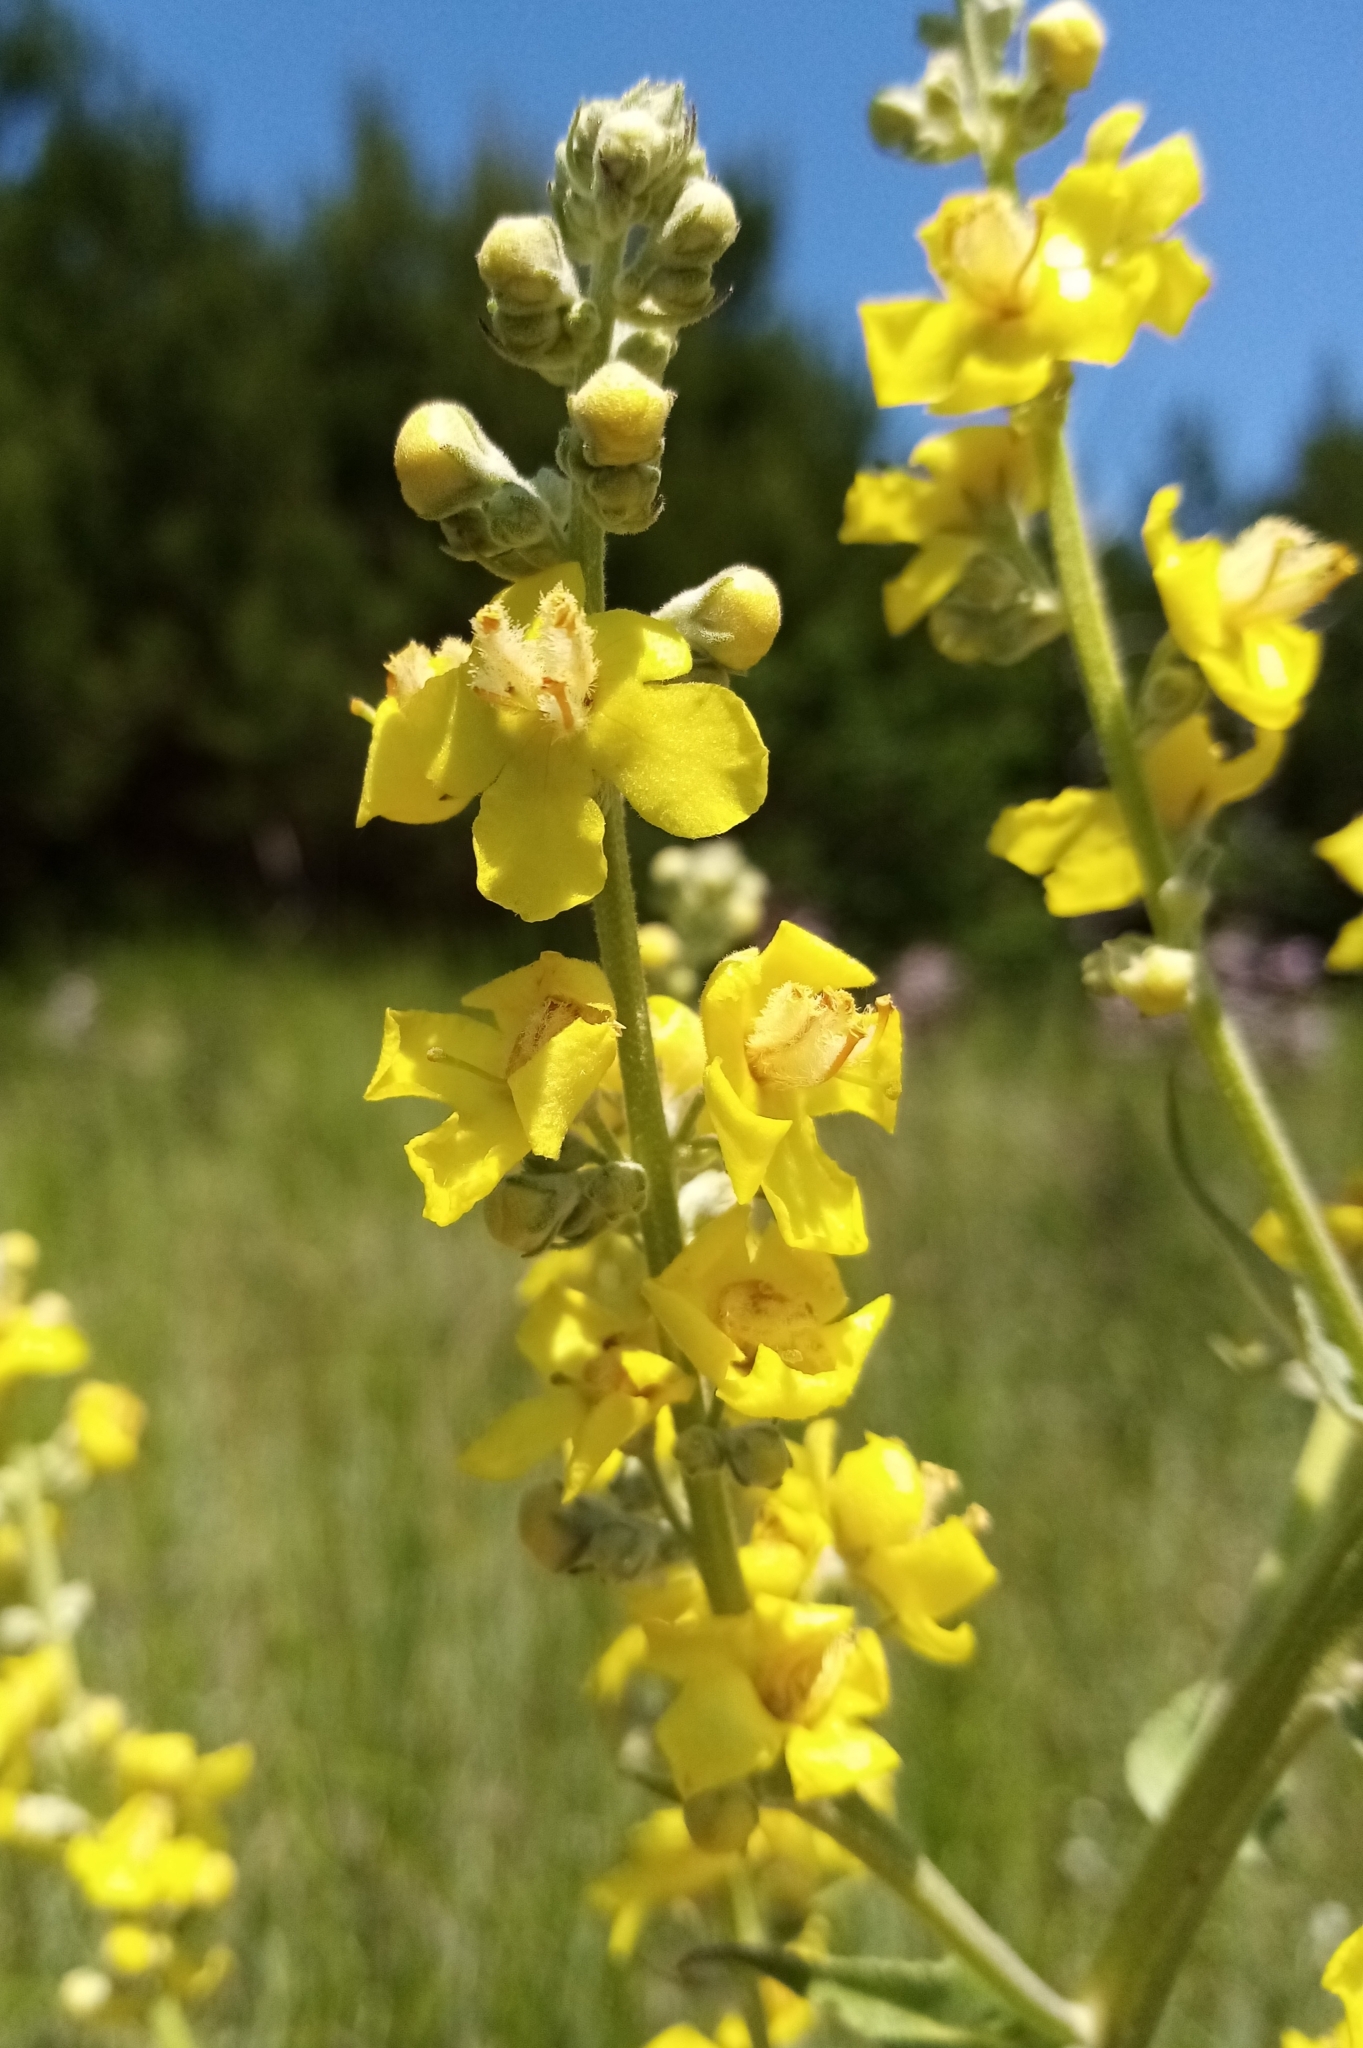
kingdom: Plantae
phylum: Tracheophyta
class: Magnoliopsida
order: Lamiales
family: Scrophulariaceae
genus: Verbascum
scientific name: Verbascum lychnitis
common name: White mullein
